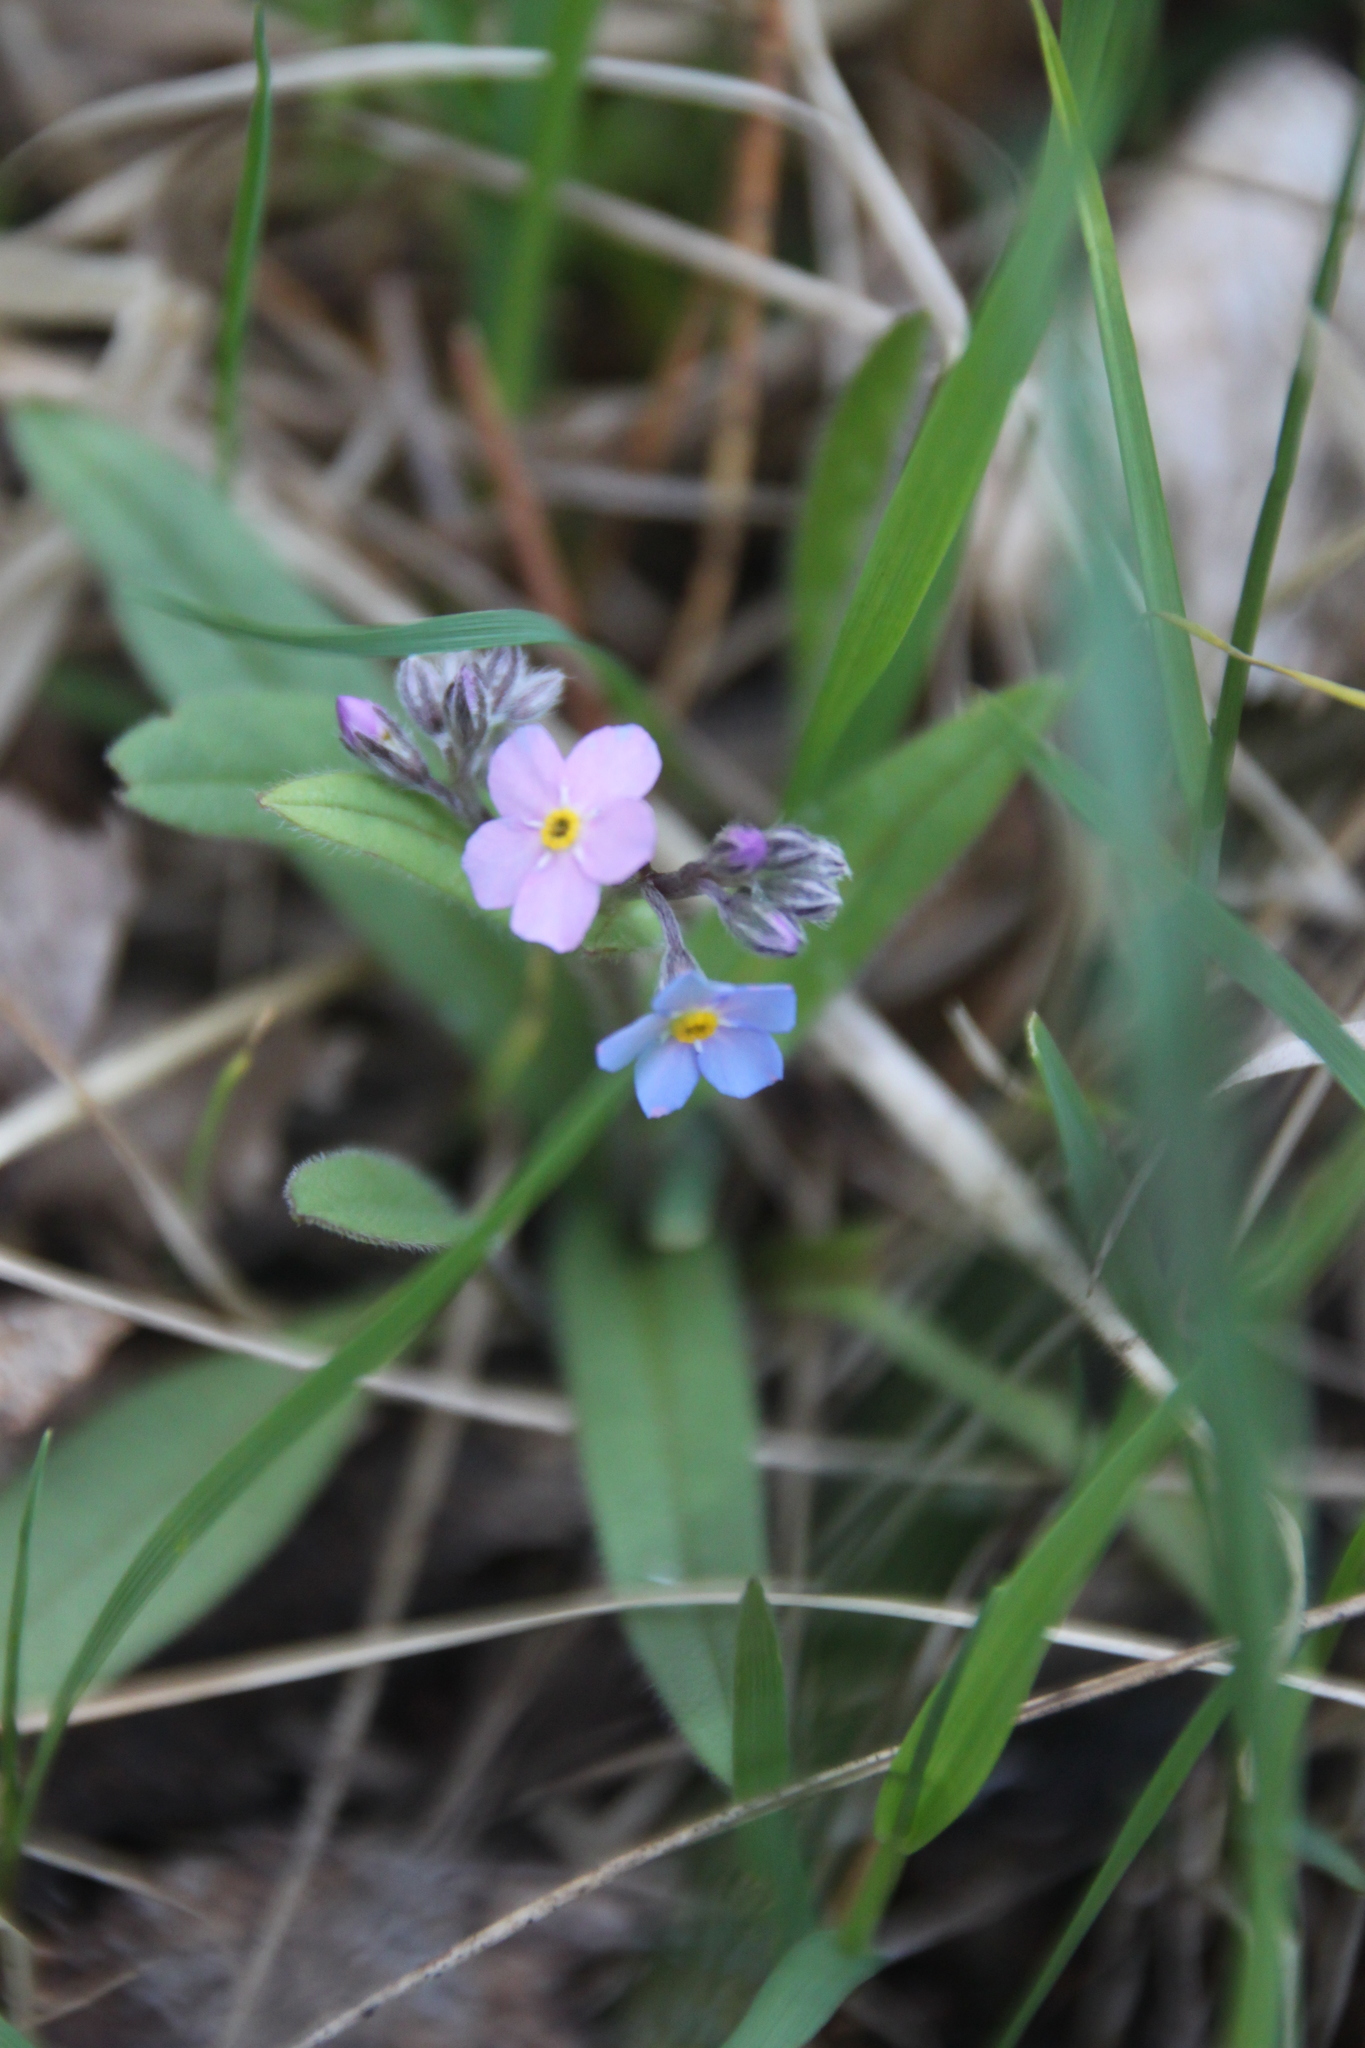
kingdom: Plantae
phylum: Tracheophyta
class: Magnoliopsida
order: Boraginales
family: Boraginaceae
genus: Myosotis
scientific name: Myosotis sylvatica
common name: Wood forget-me-not
